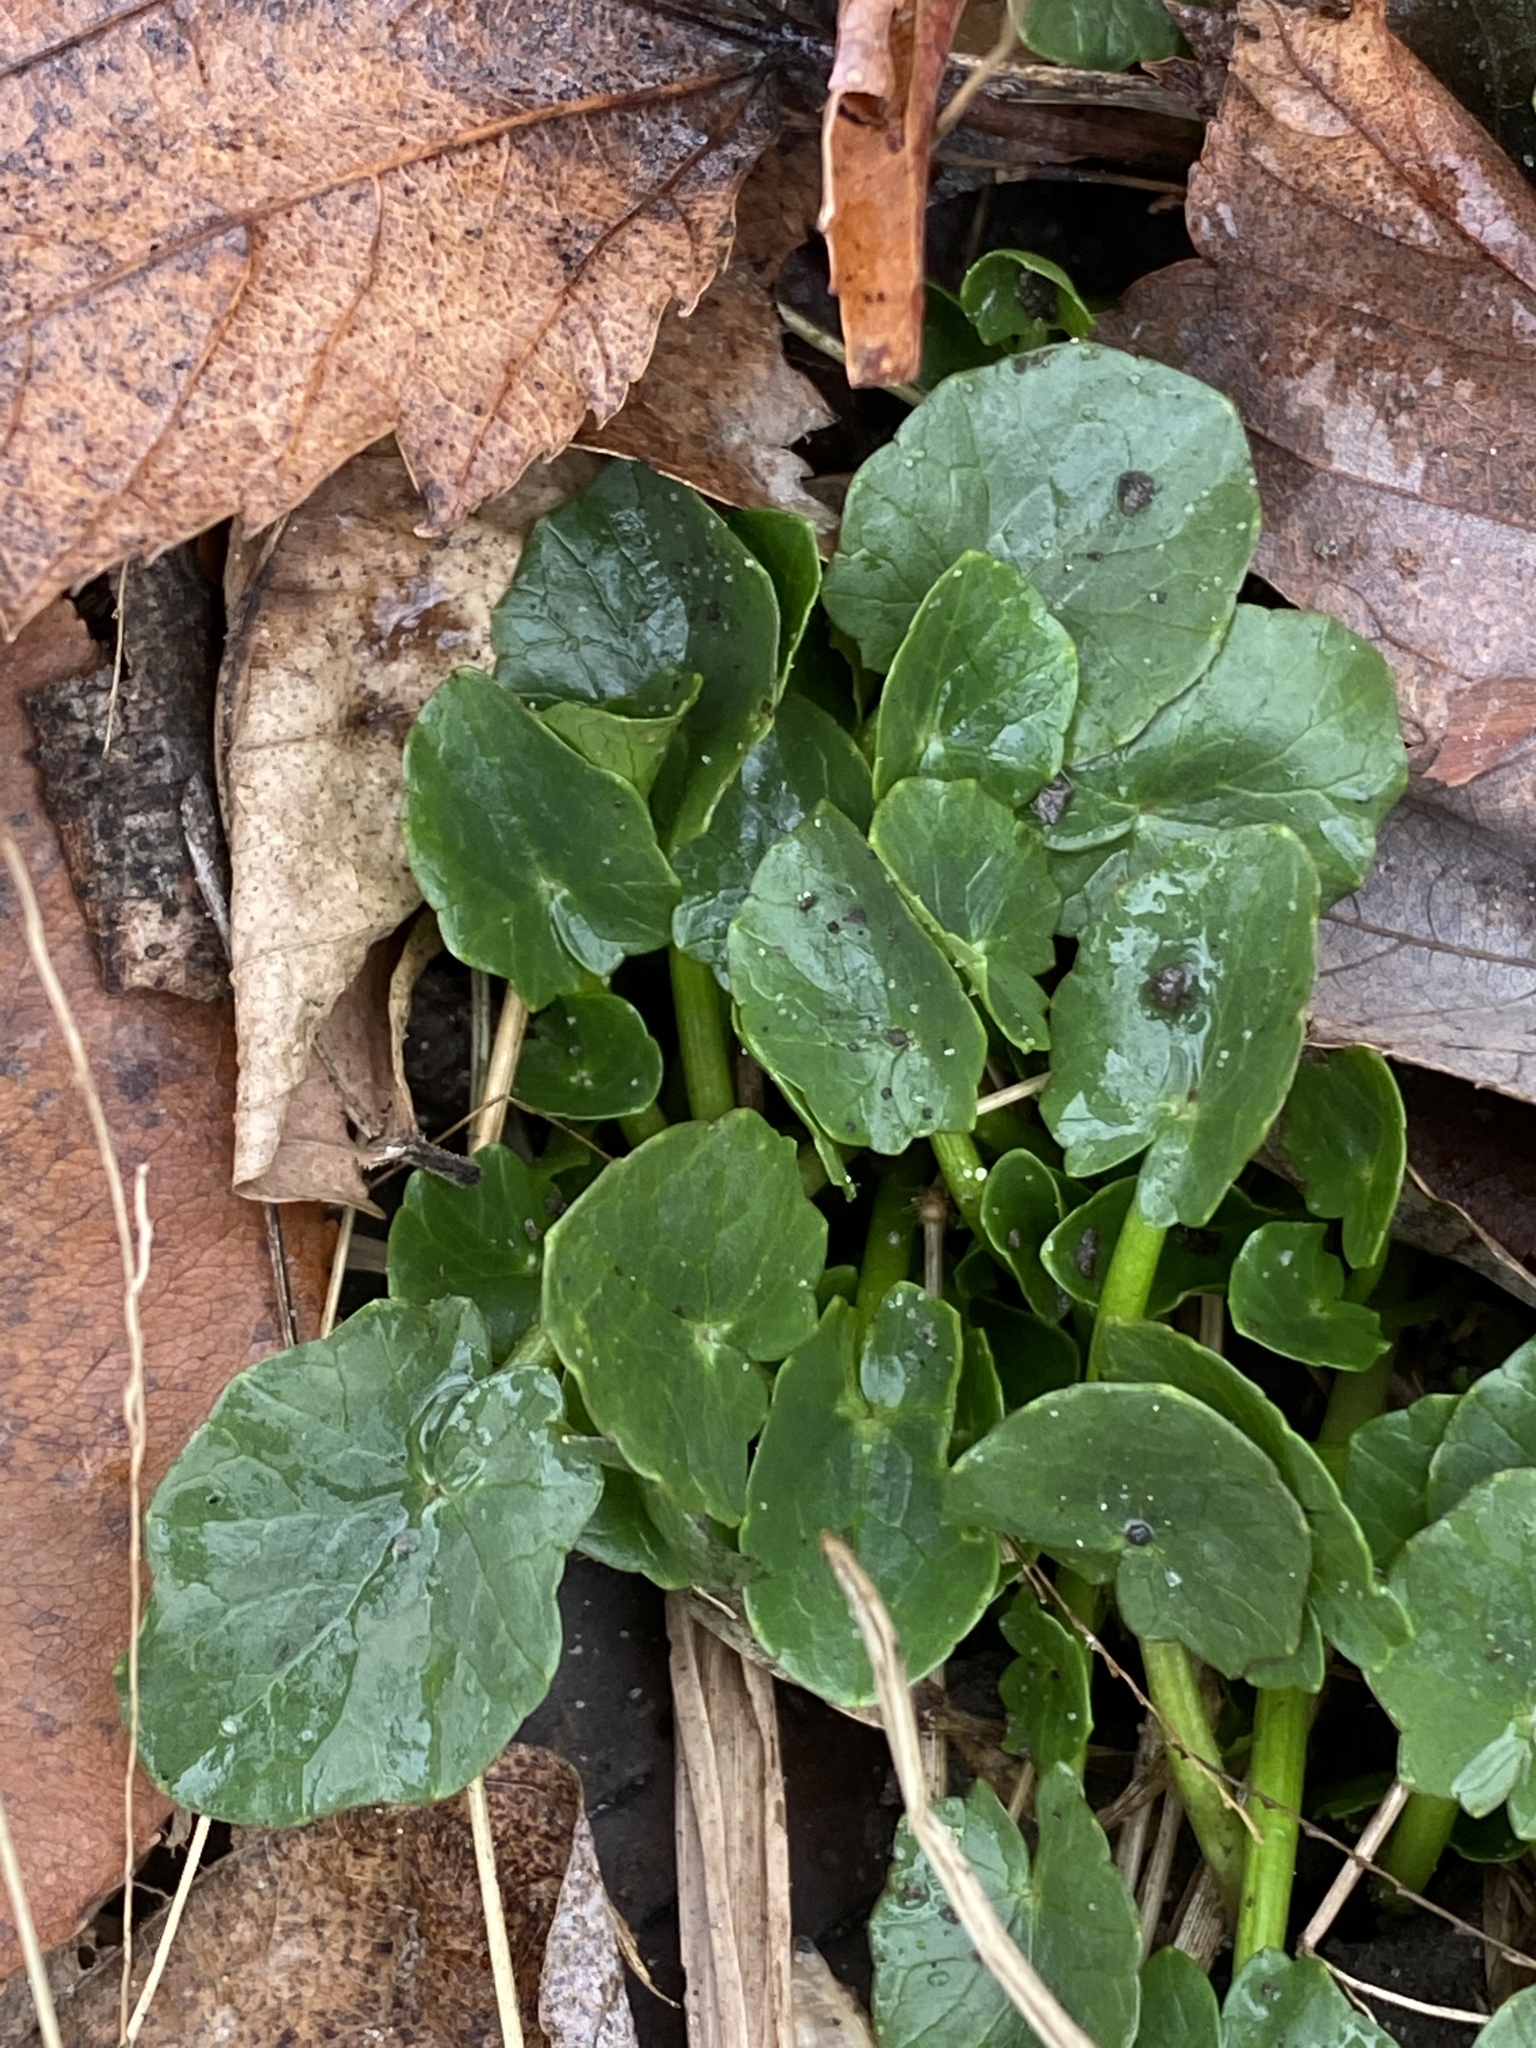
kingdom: Plantae
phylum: Tracheophyta
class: Magnoliopsida
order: Ranunculales
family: Ranunculaceae
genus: Ficaria
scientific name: Ficaria verna
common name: Lesser celandine
